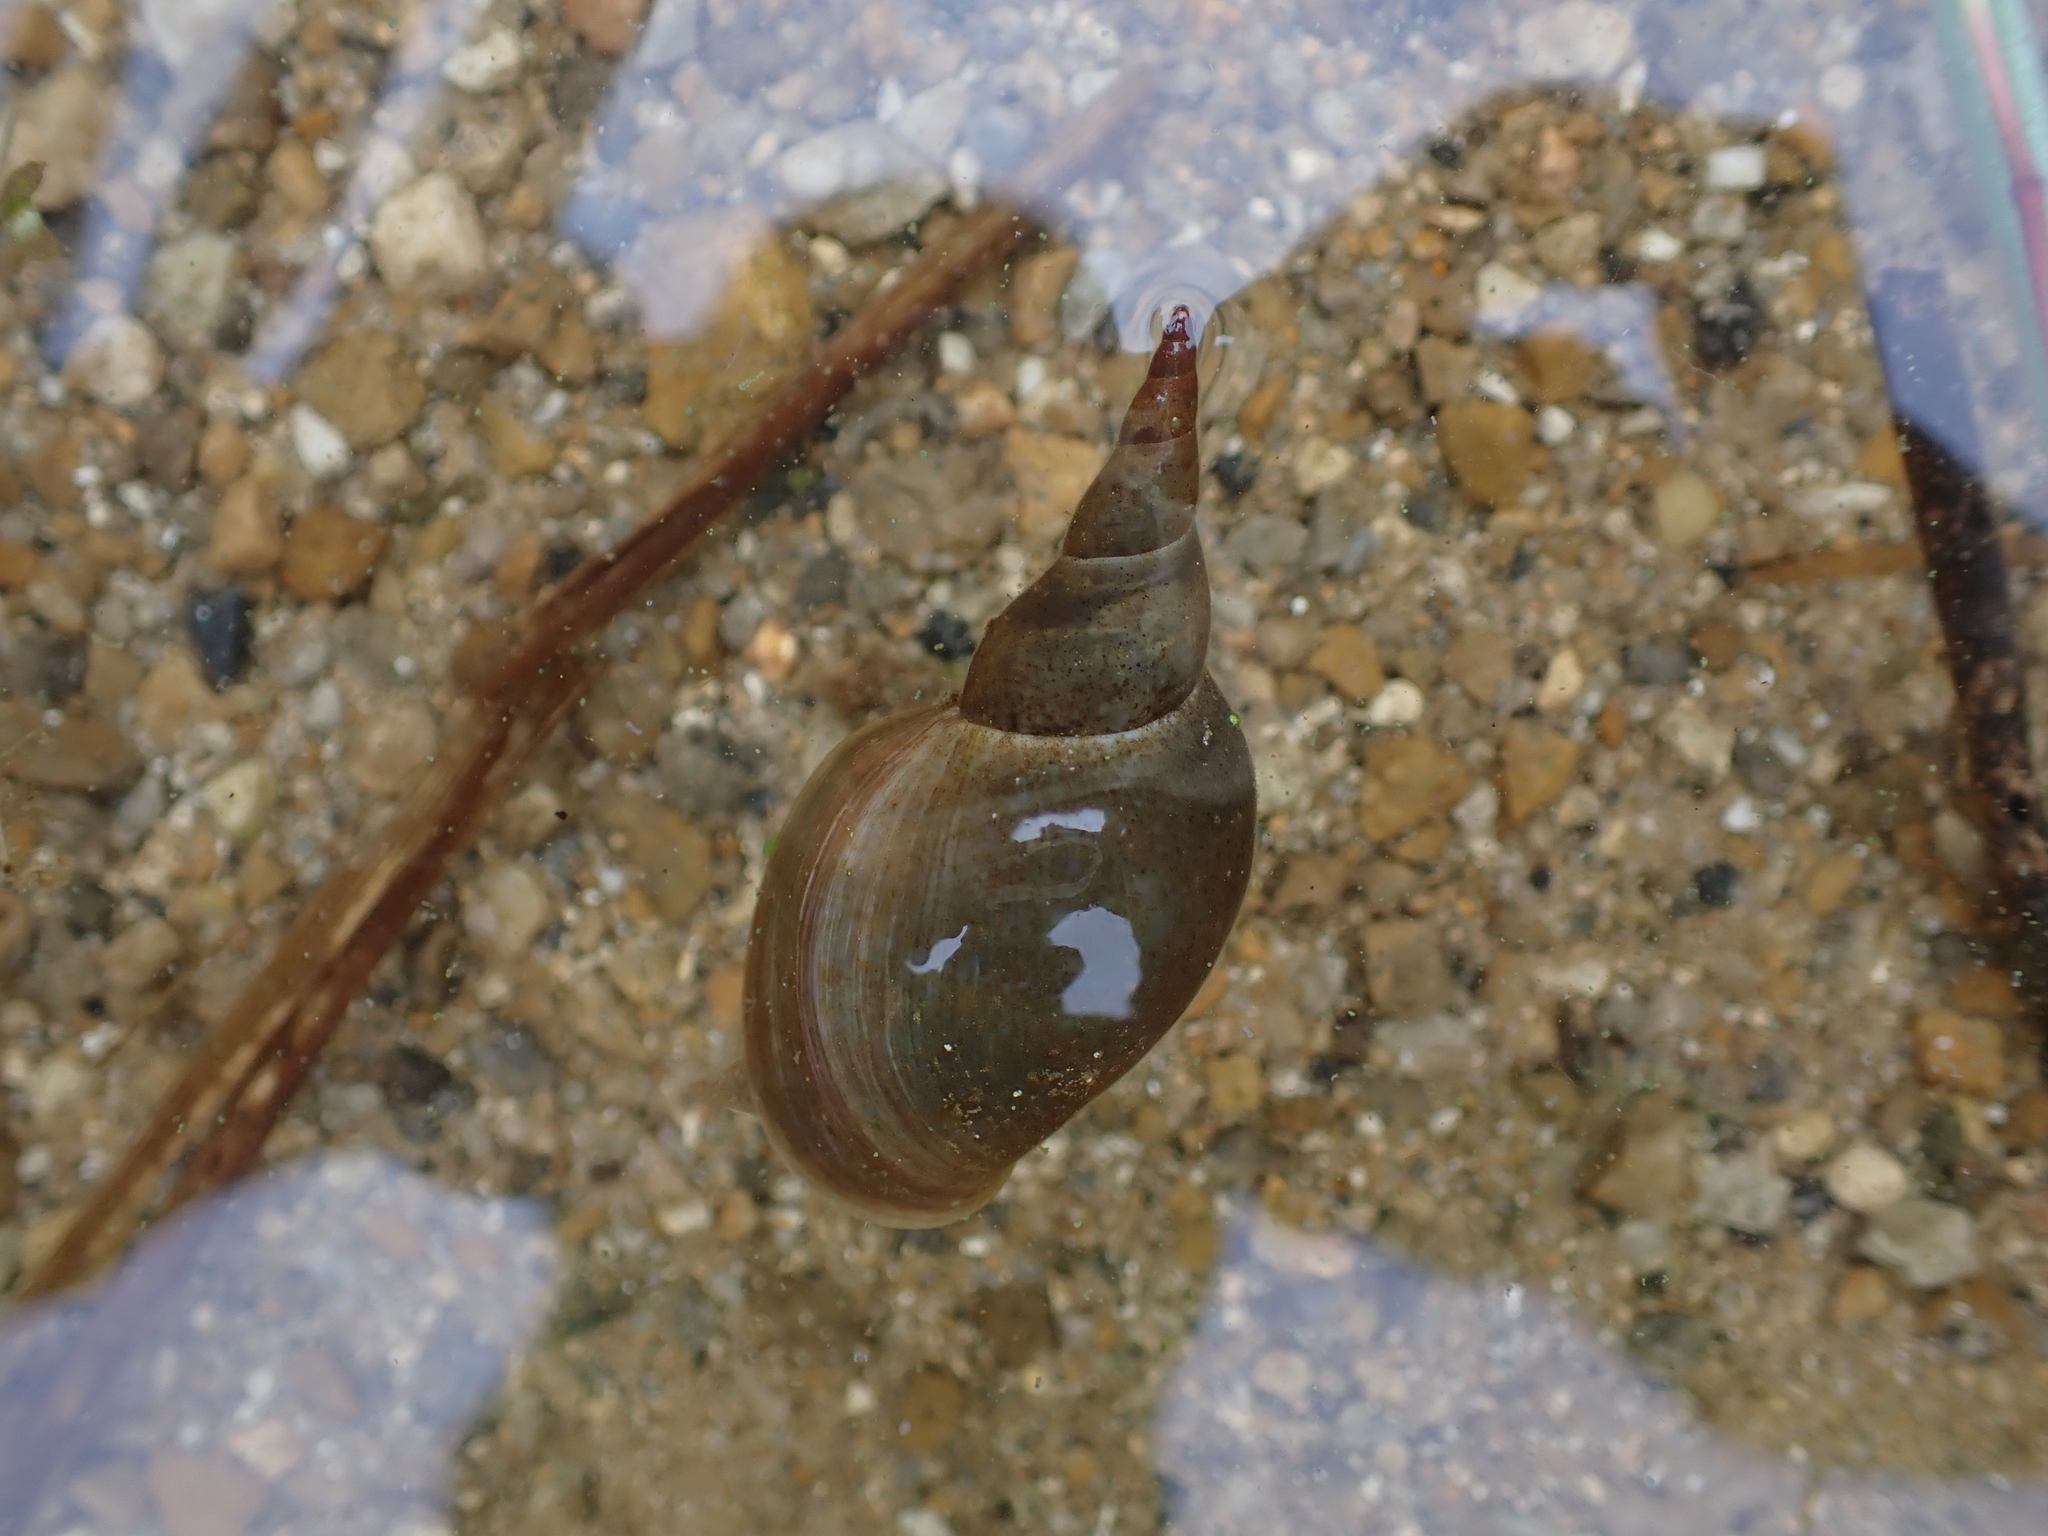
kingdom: Animalia
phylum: Mollusca
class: Gastropoda
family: Lymnaeidae
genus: Lymnaea
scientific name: Lymnaea stagnalis
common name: Great pond snail
